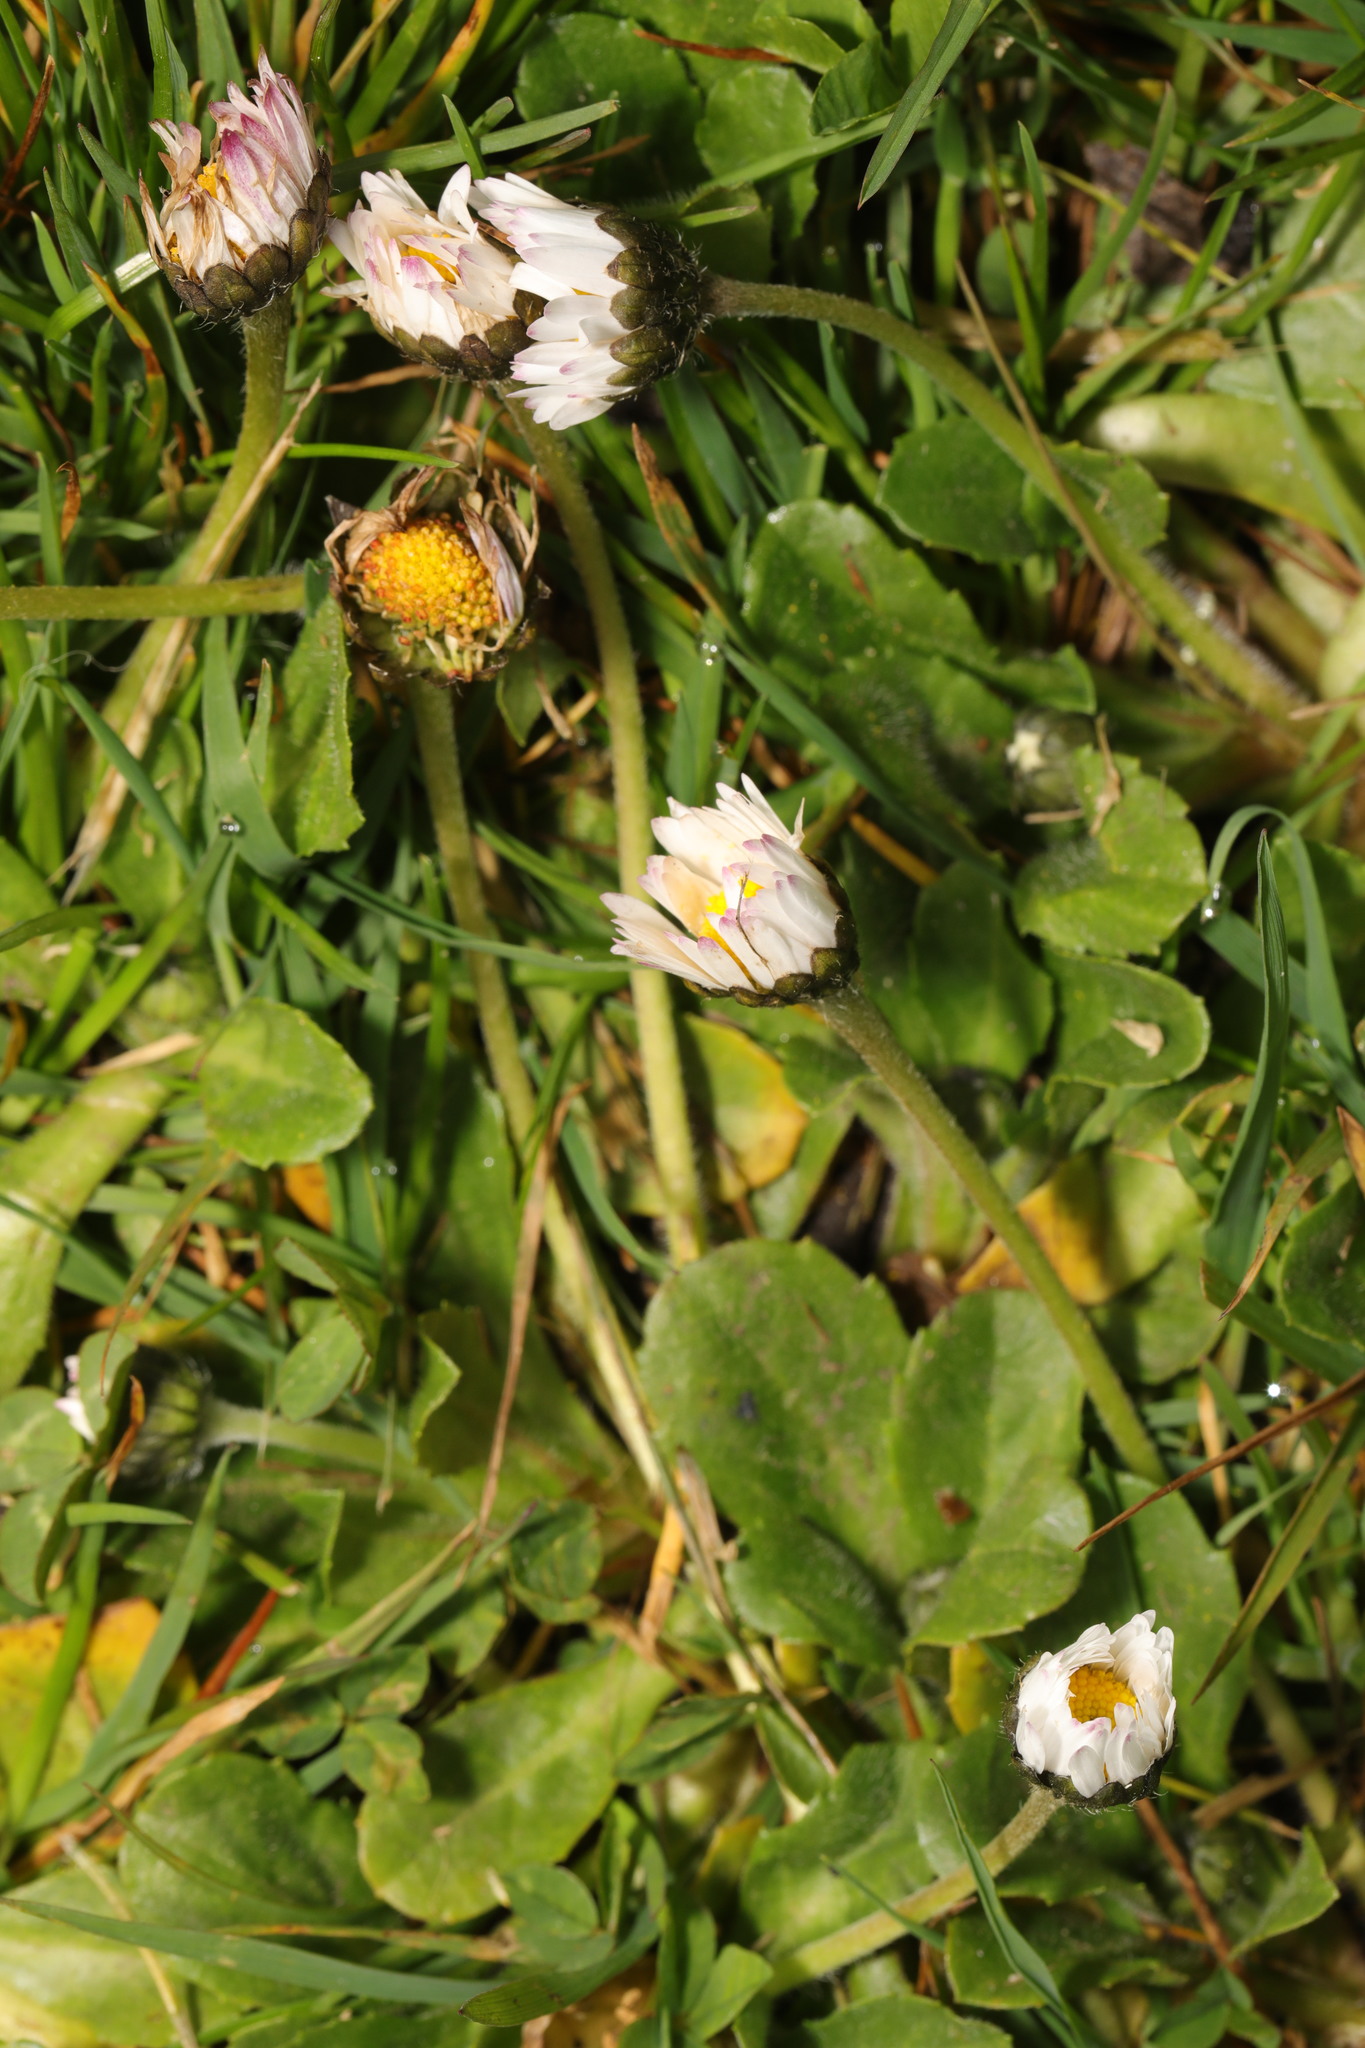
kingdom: Plantae
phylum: Tracheophyta
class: Magnoliopsida
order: Asterales
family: Asteraceae
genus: Bellis
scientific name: Bellis perennis
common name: Lawndaisy
